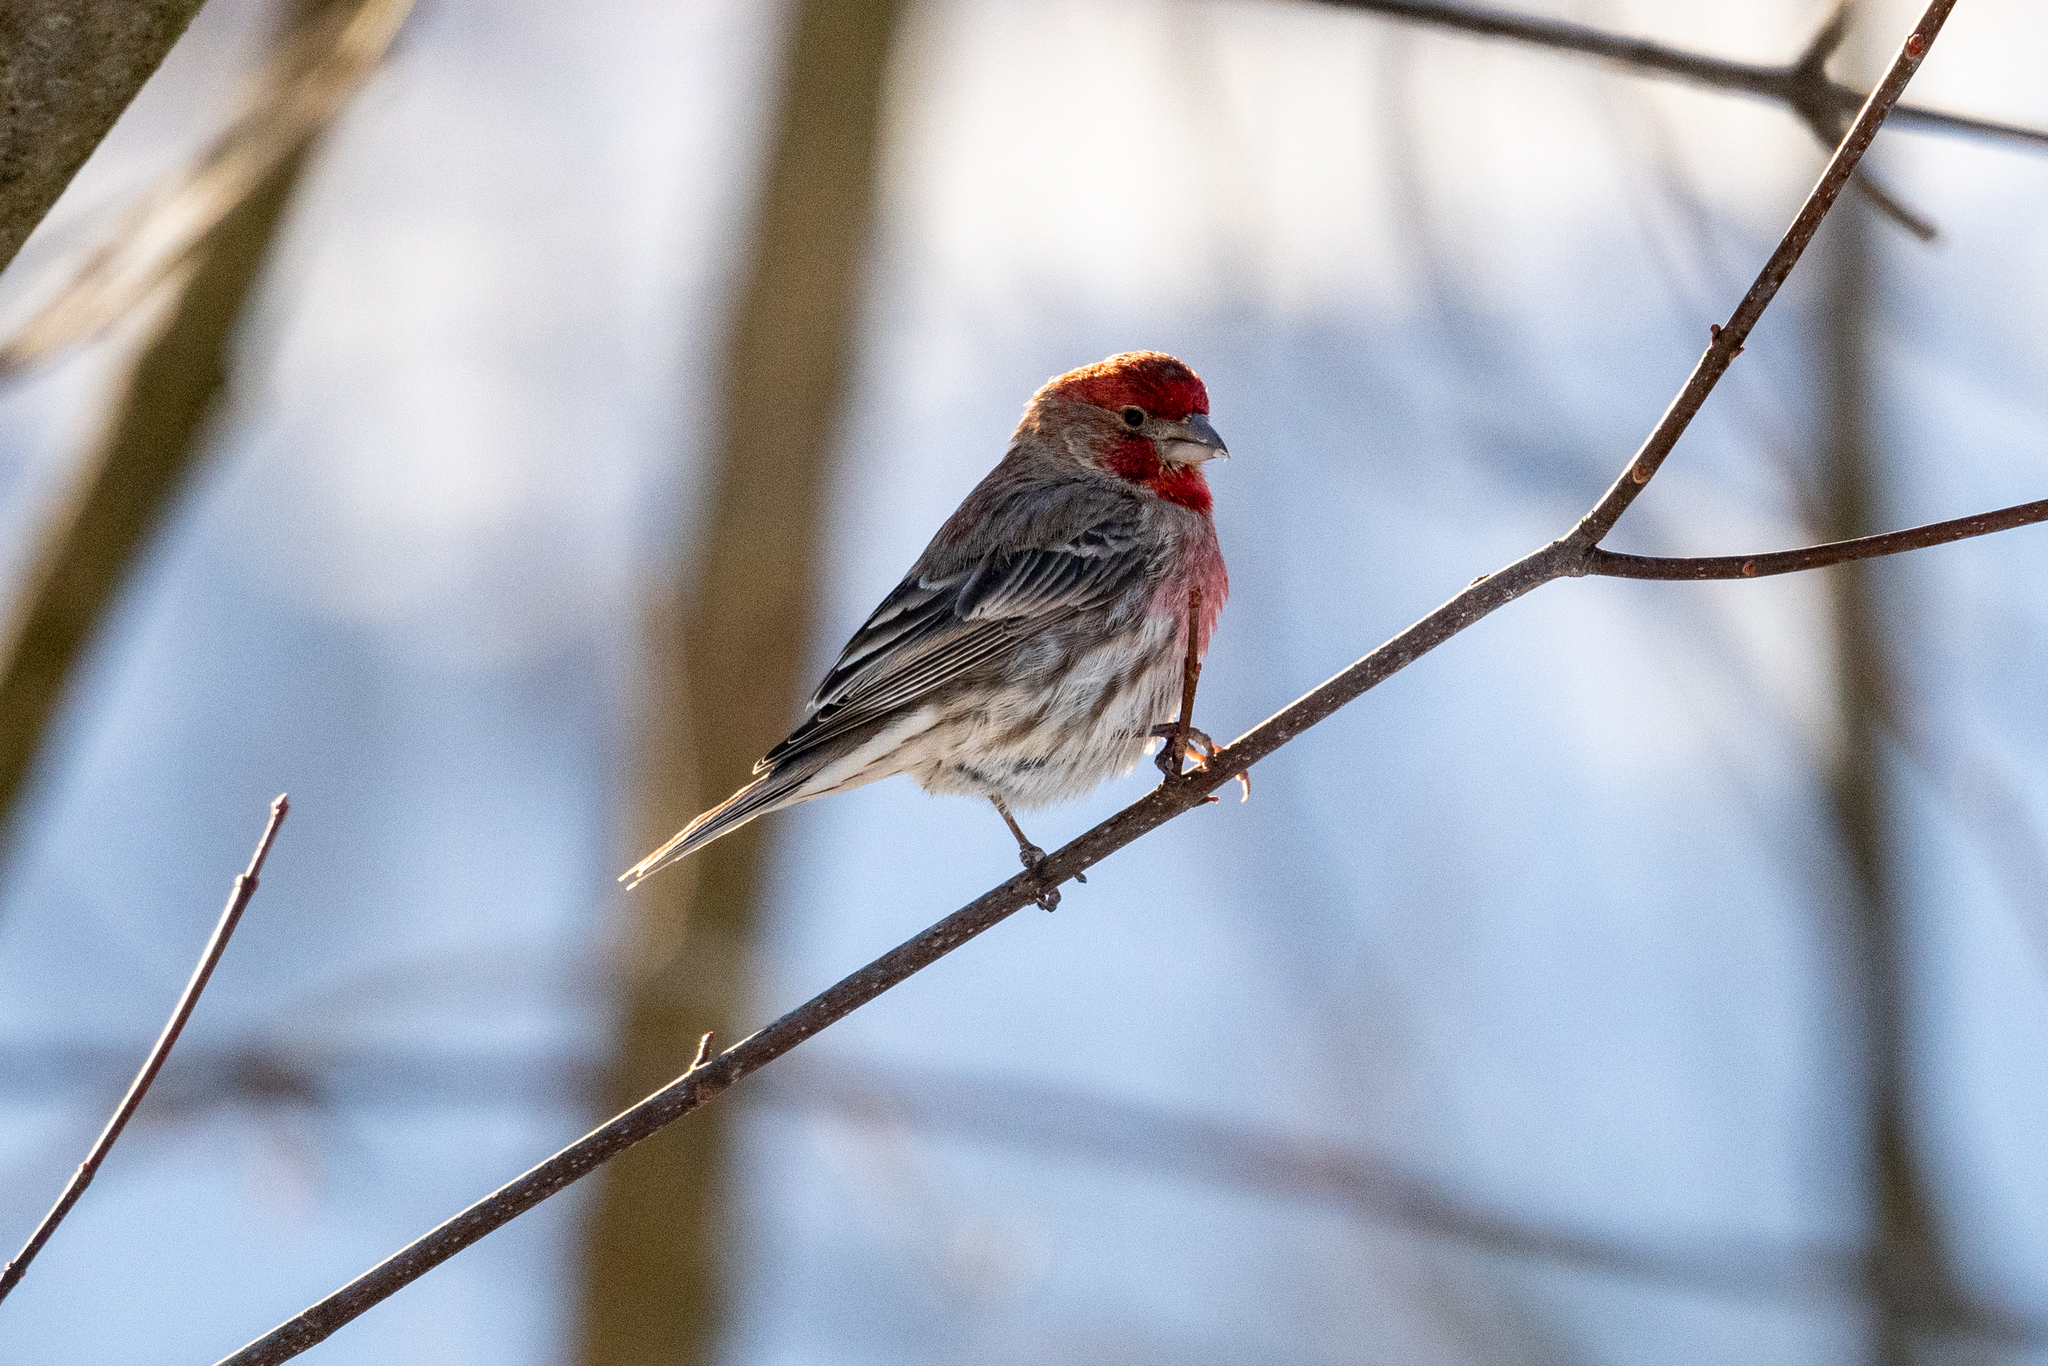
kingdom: Animalia
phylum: Chordata
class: Aves
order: Passeriformes
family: Fringillidae
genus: Haemorhous
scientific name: Haemorhous mexicanus
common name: House finch
